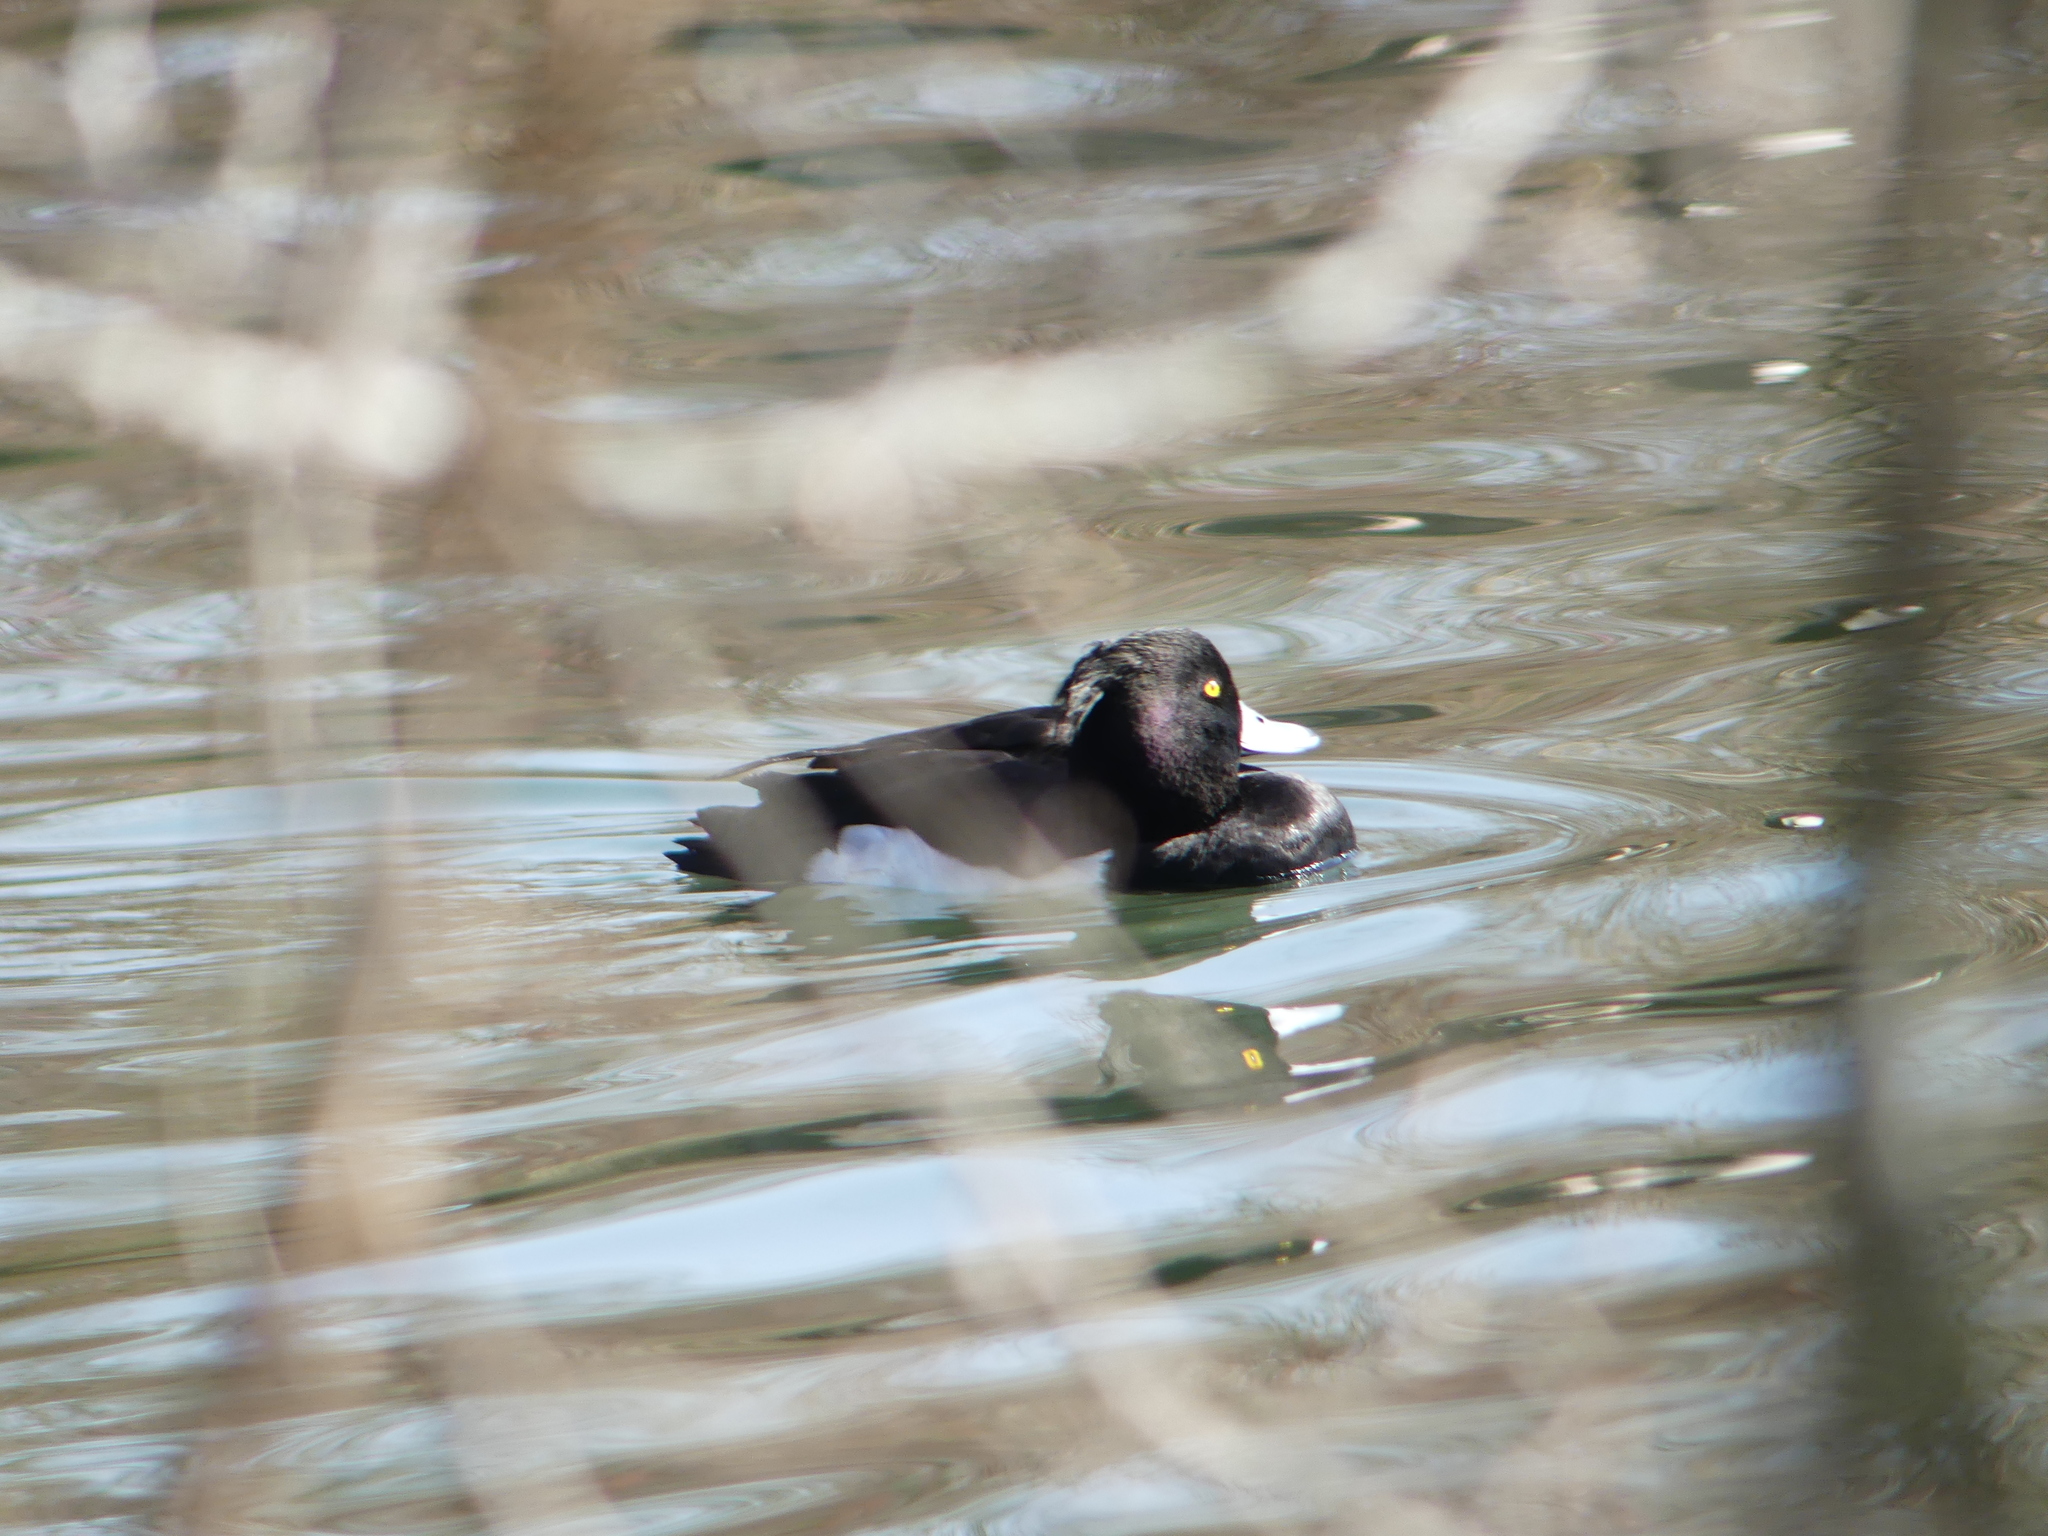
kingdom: Animalia
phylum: Chordata
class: Aves
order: Anseriformes
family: Anatidae
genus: Aythya
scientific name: Aythya fuligula
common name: Tufted duck
